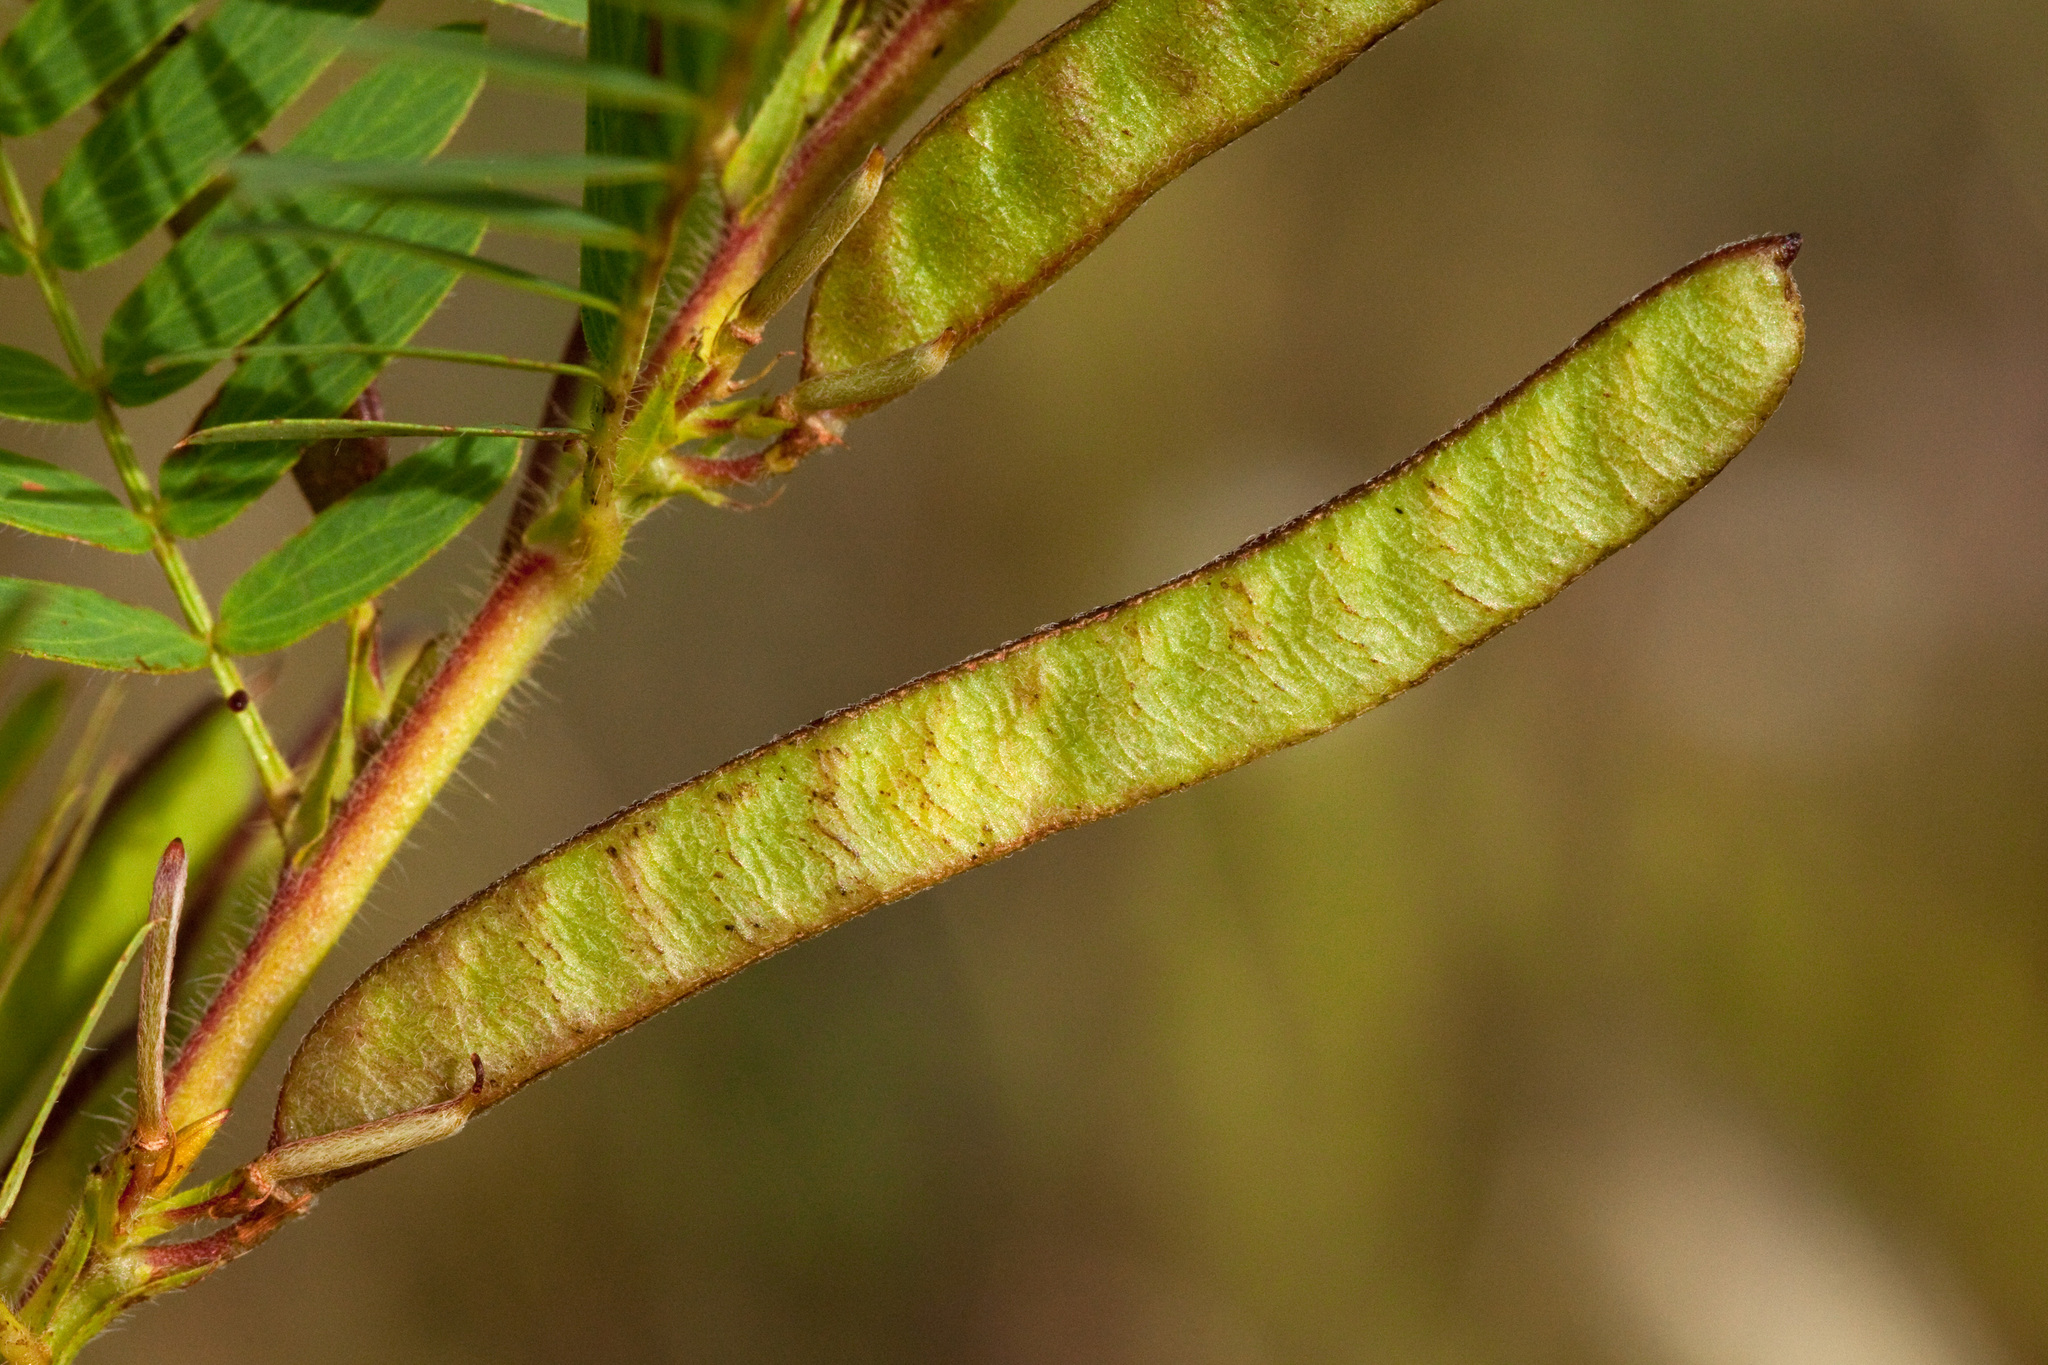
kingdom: Plantae
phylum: Tracheophyta
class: Magnoliopsida
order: Fabales
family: Fabaceae
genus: Chamaecrista
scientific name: Chamaecrista nictitans
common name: Sensitive cassia
